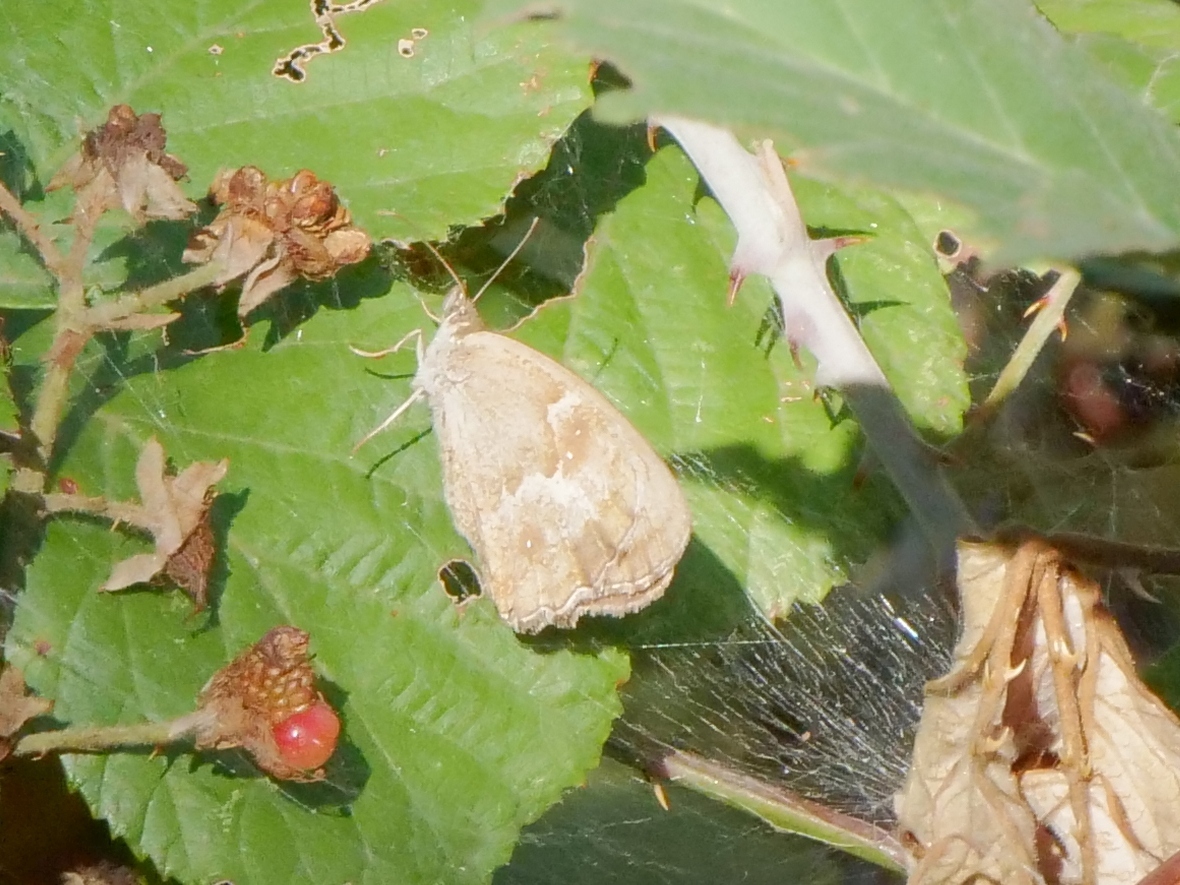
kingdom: Animalia
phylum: Arthropoda
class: Insecta
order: Lepidoptera
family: Nymphalidae
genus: Pyronia
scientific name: Pyronia tithonus
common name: Gatekeeper
